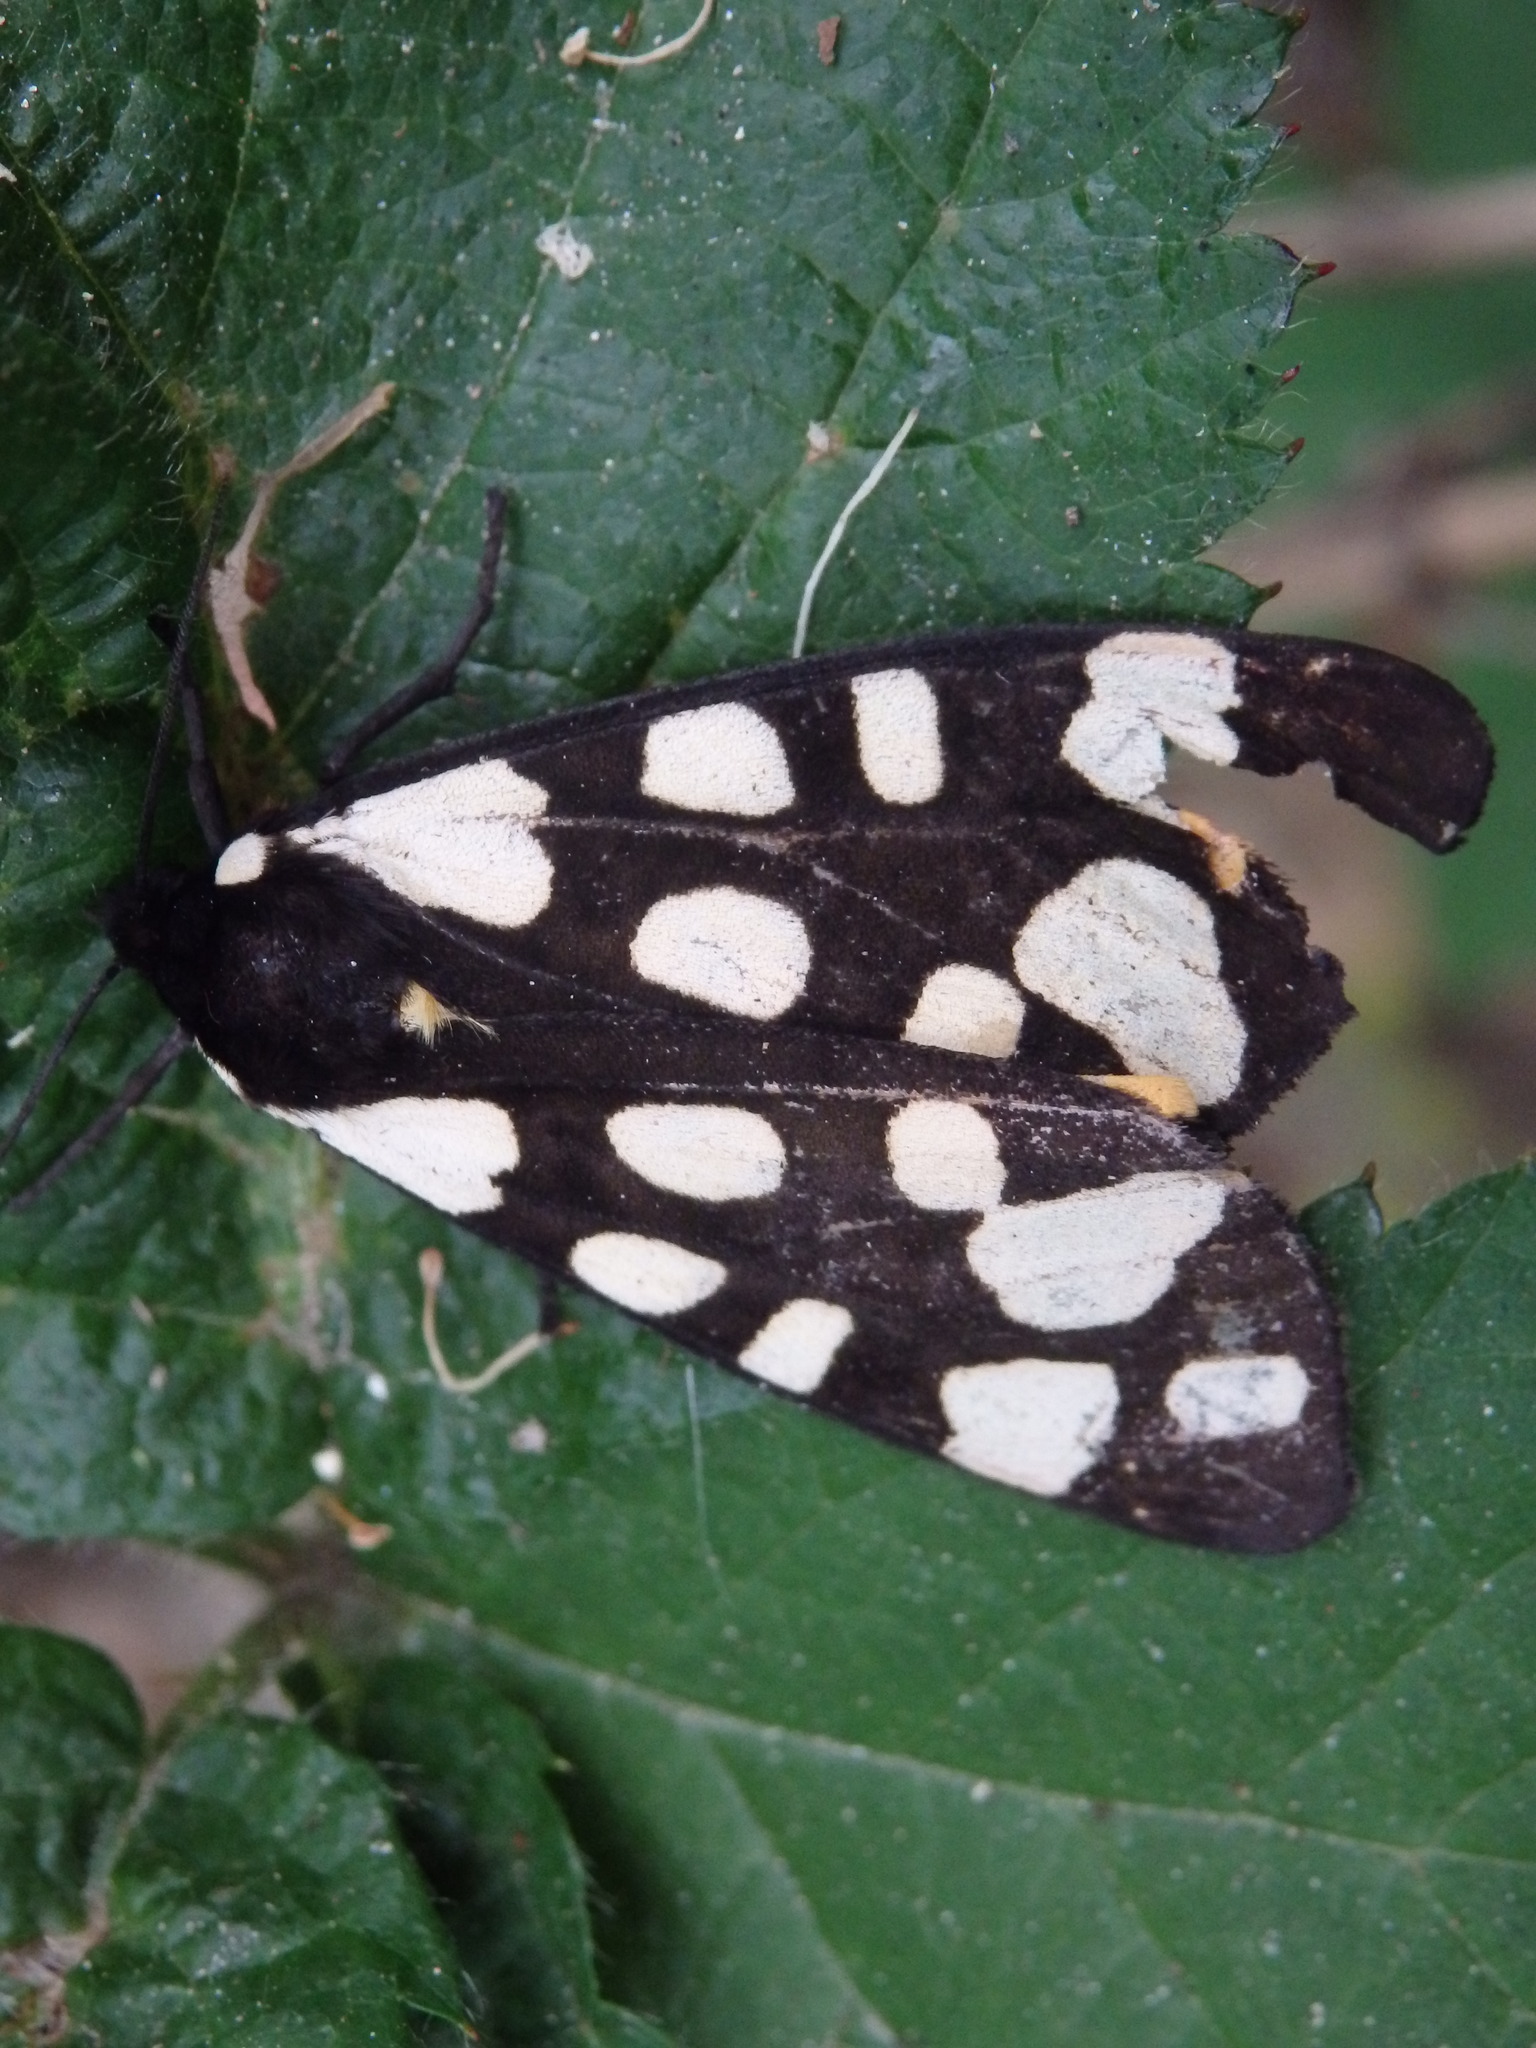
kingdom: Animalia
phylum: Arthropoda
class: Insecta
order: Lepidoptera
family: Erebidae
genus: Epicallia
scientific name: Epicallia villica
